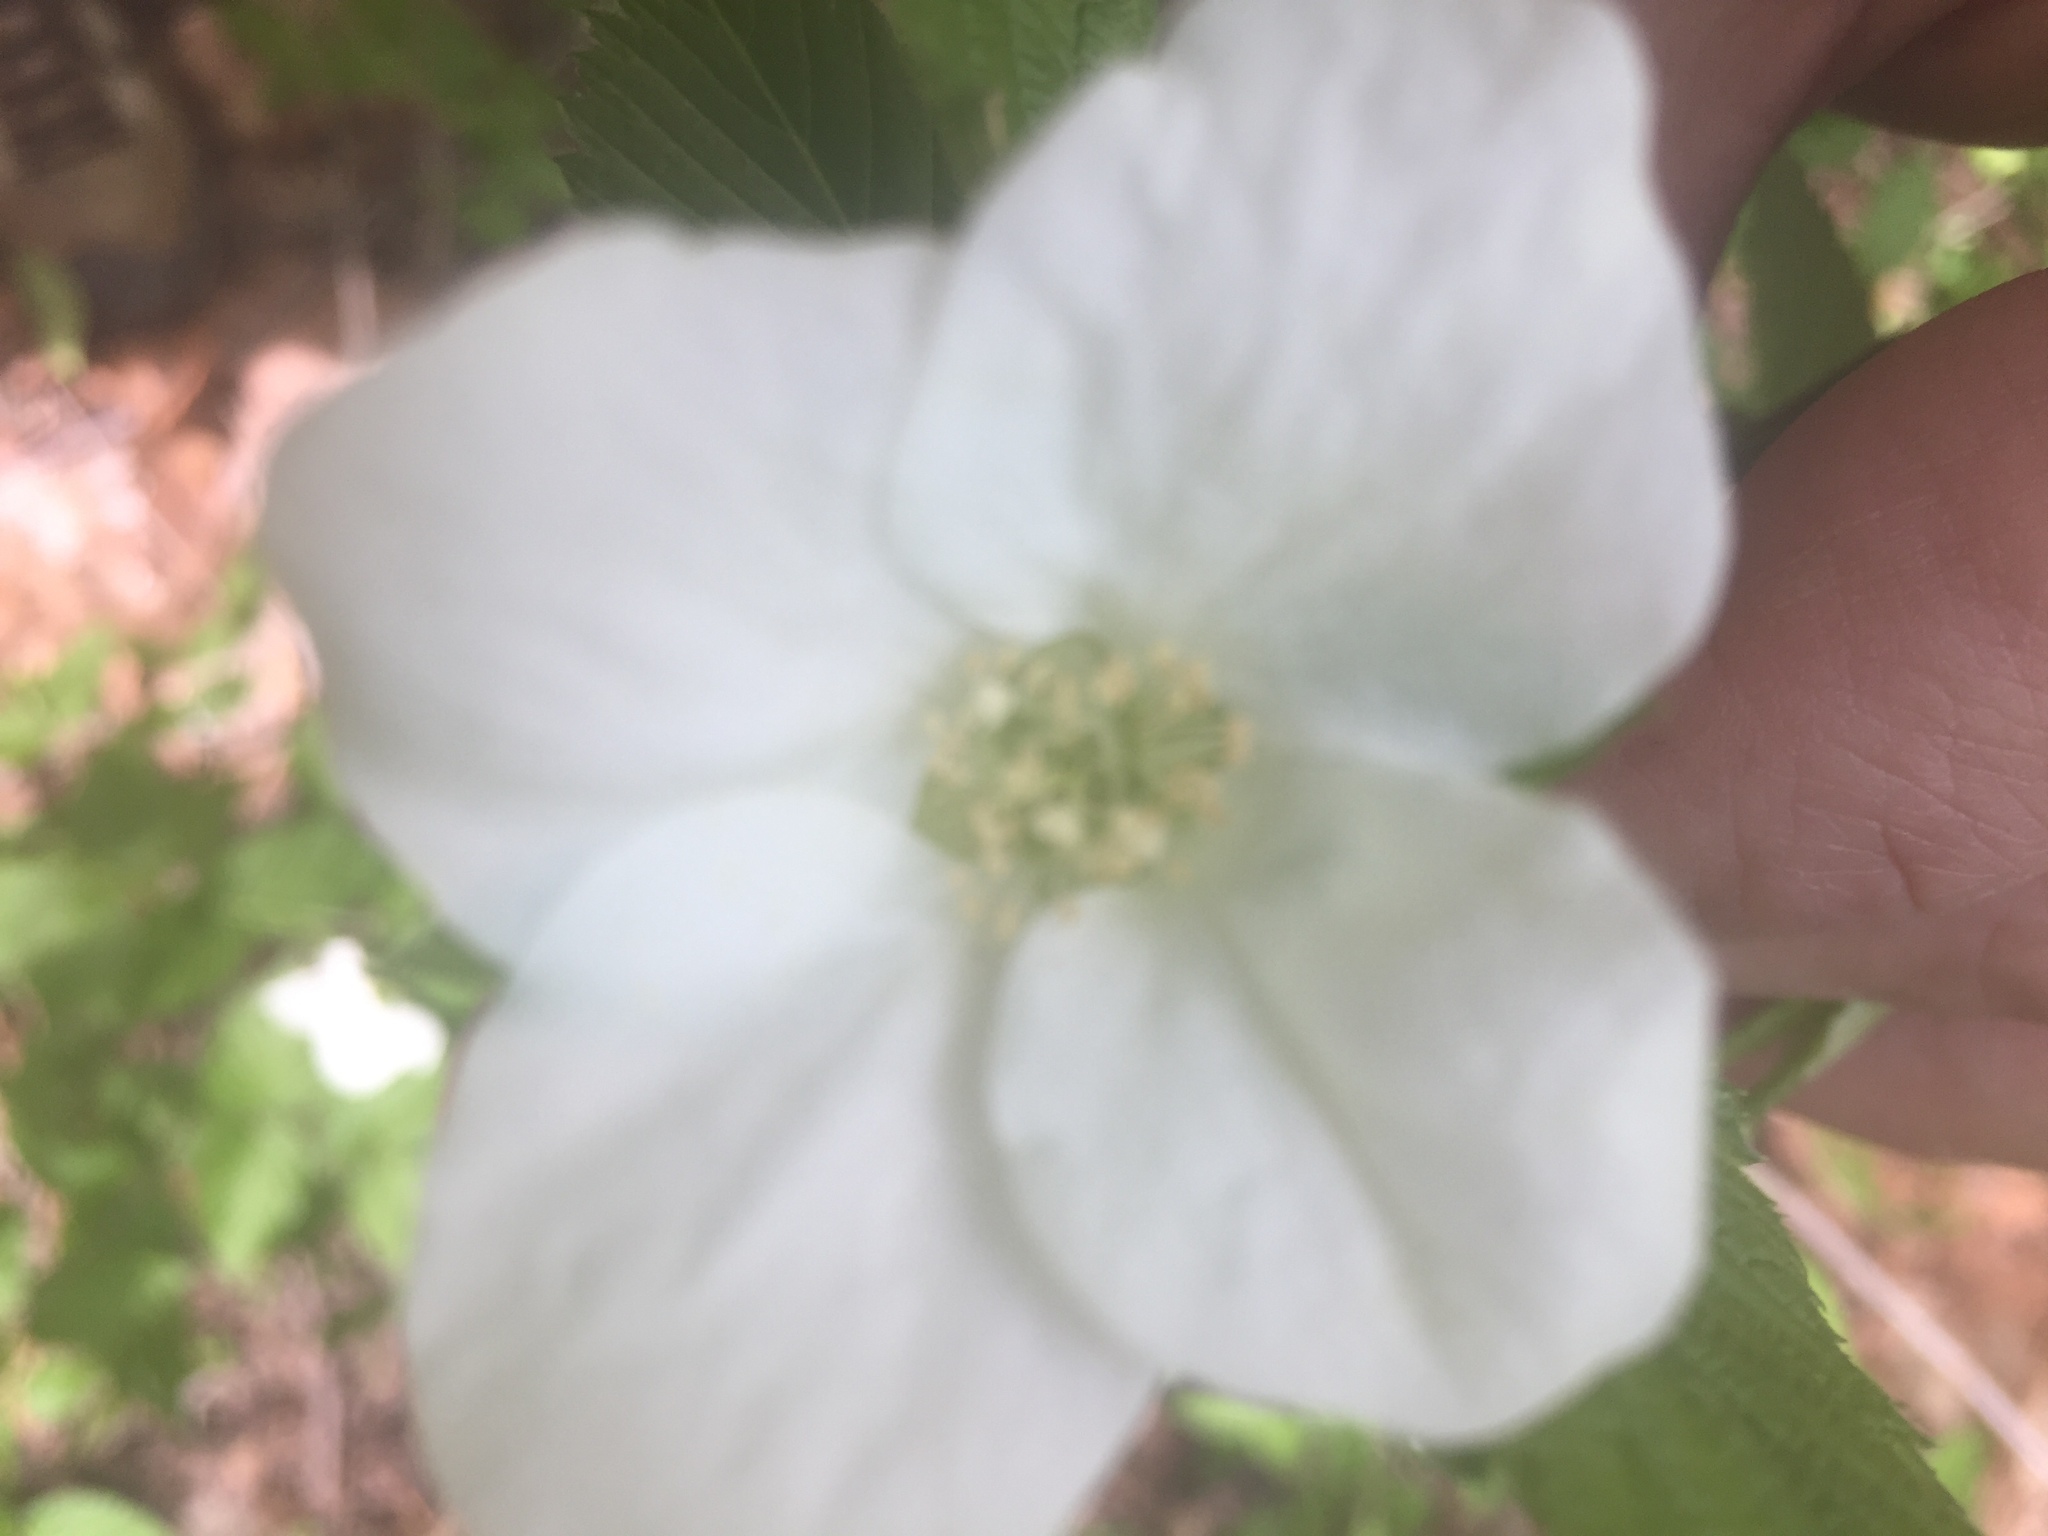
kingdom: Plantae
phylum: Tracheophyta
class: Magnoliopsida
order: Rosales
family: Rosaceae
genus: Rhodotypos
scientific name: Rhodotypos scandens
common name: Jetbead
